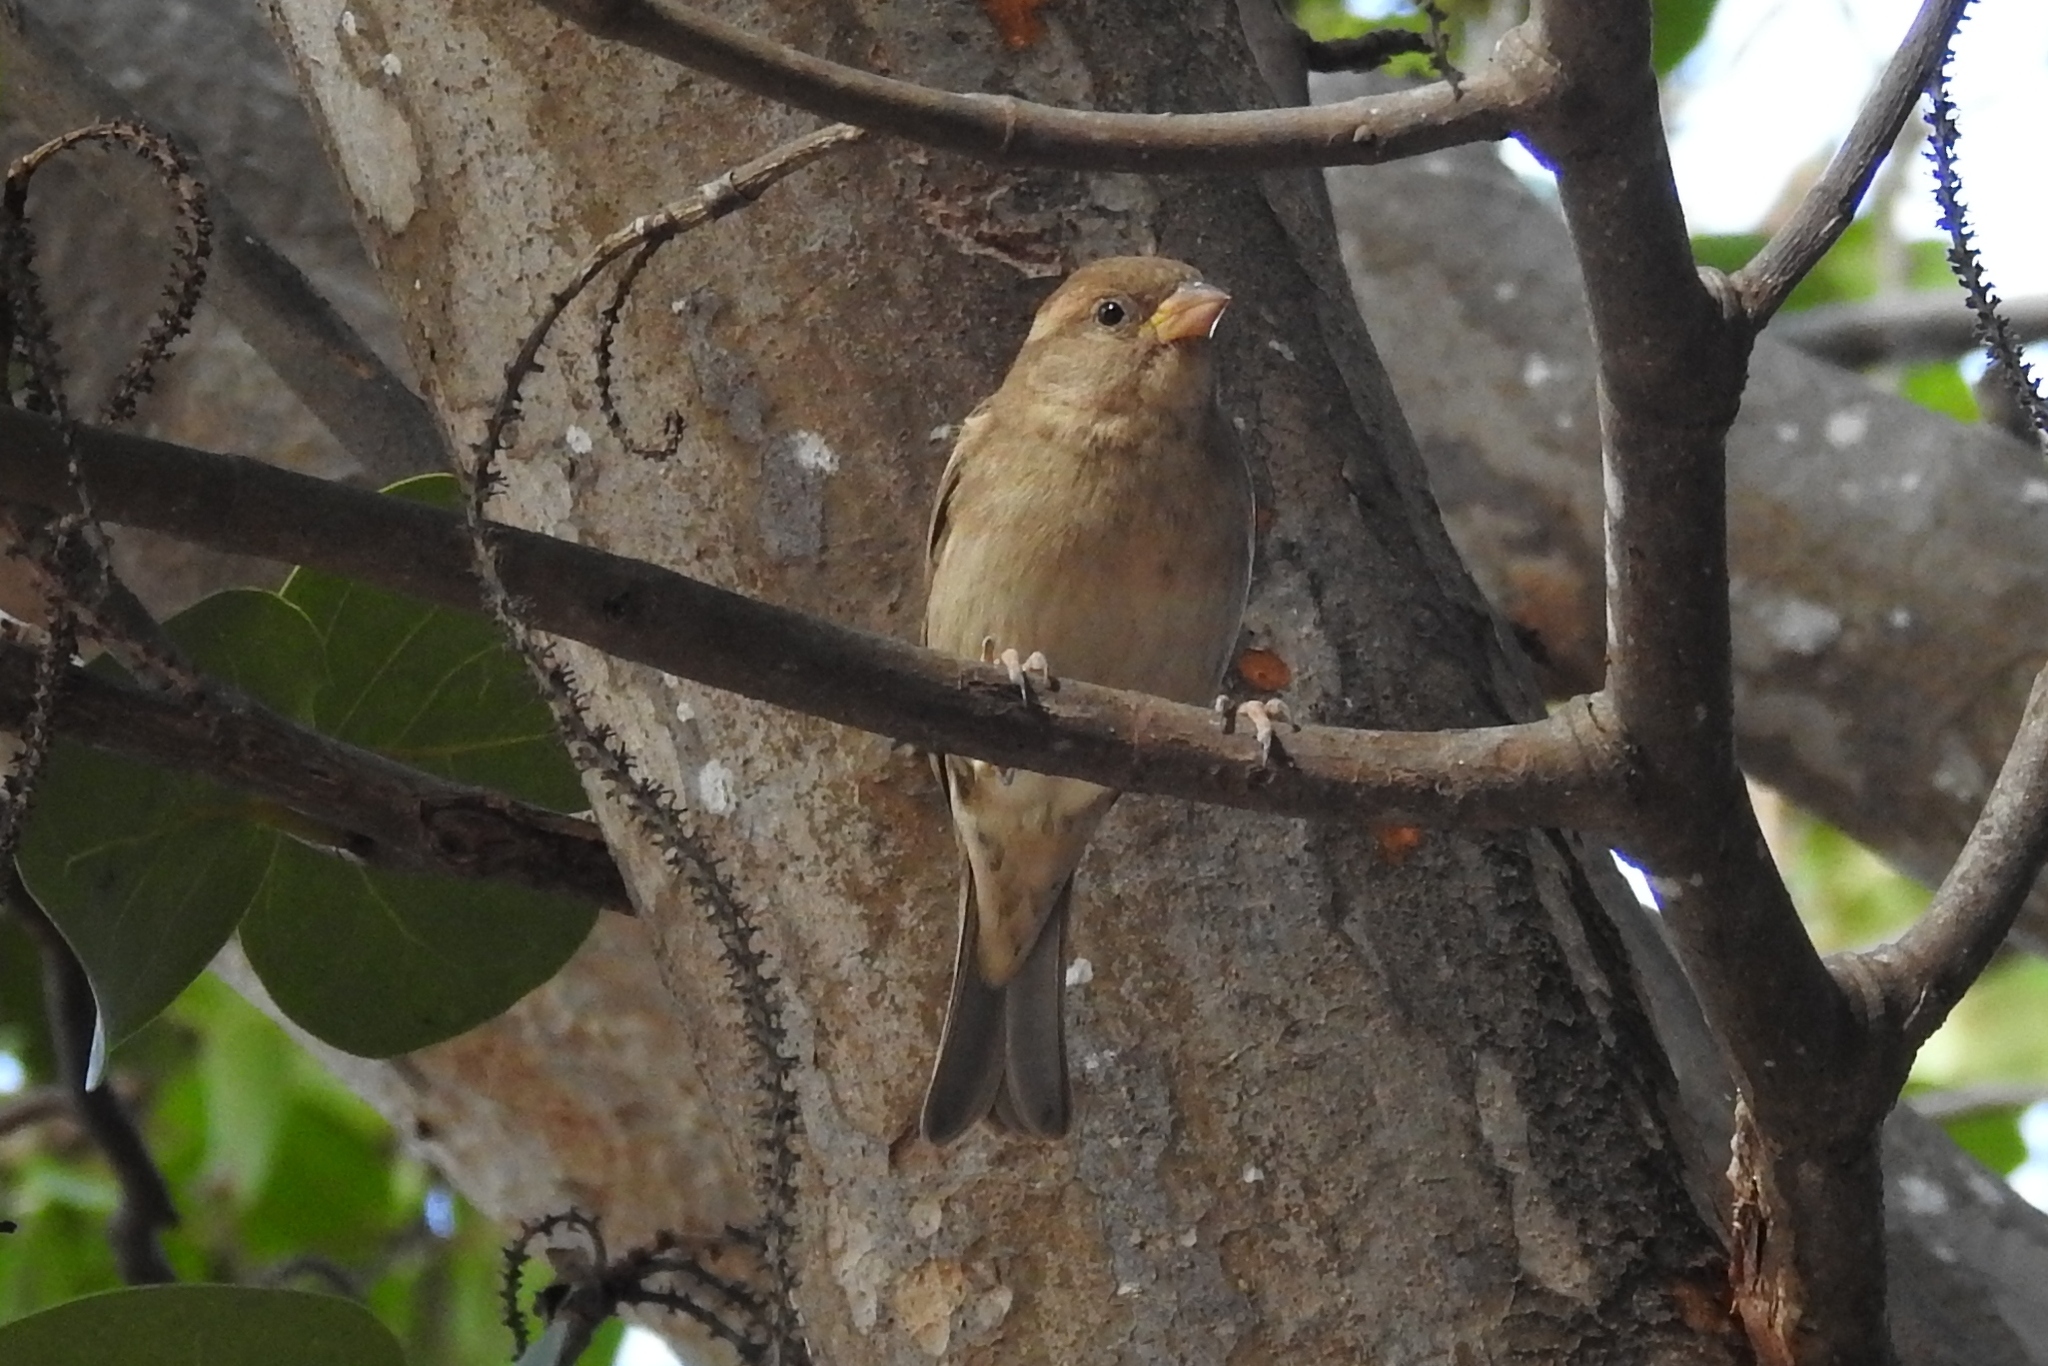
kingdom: Animalia
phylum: Chordata
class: Aves
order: Passeriformes
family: Passeridae
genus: Passer
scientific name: Passer domesticus
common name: House sparrow
